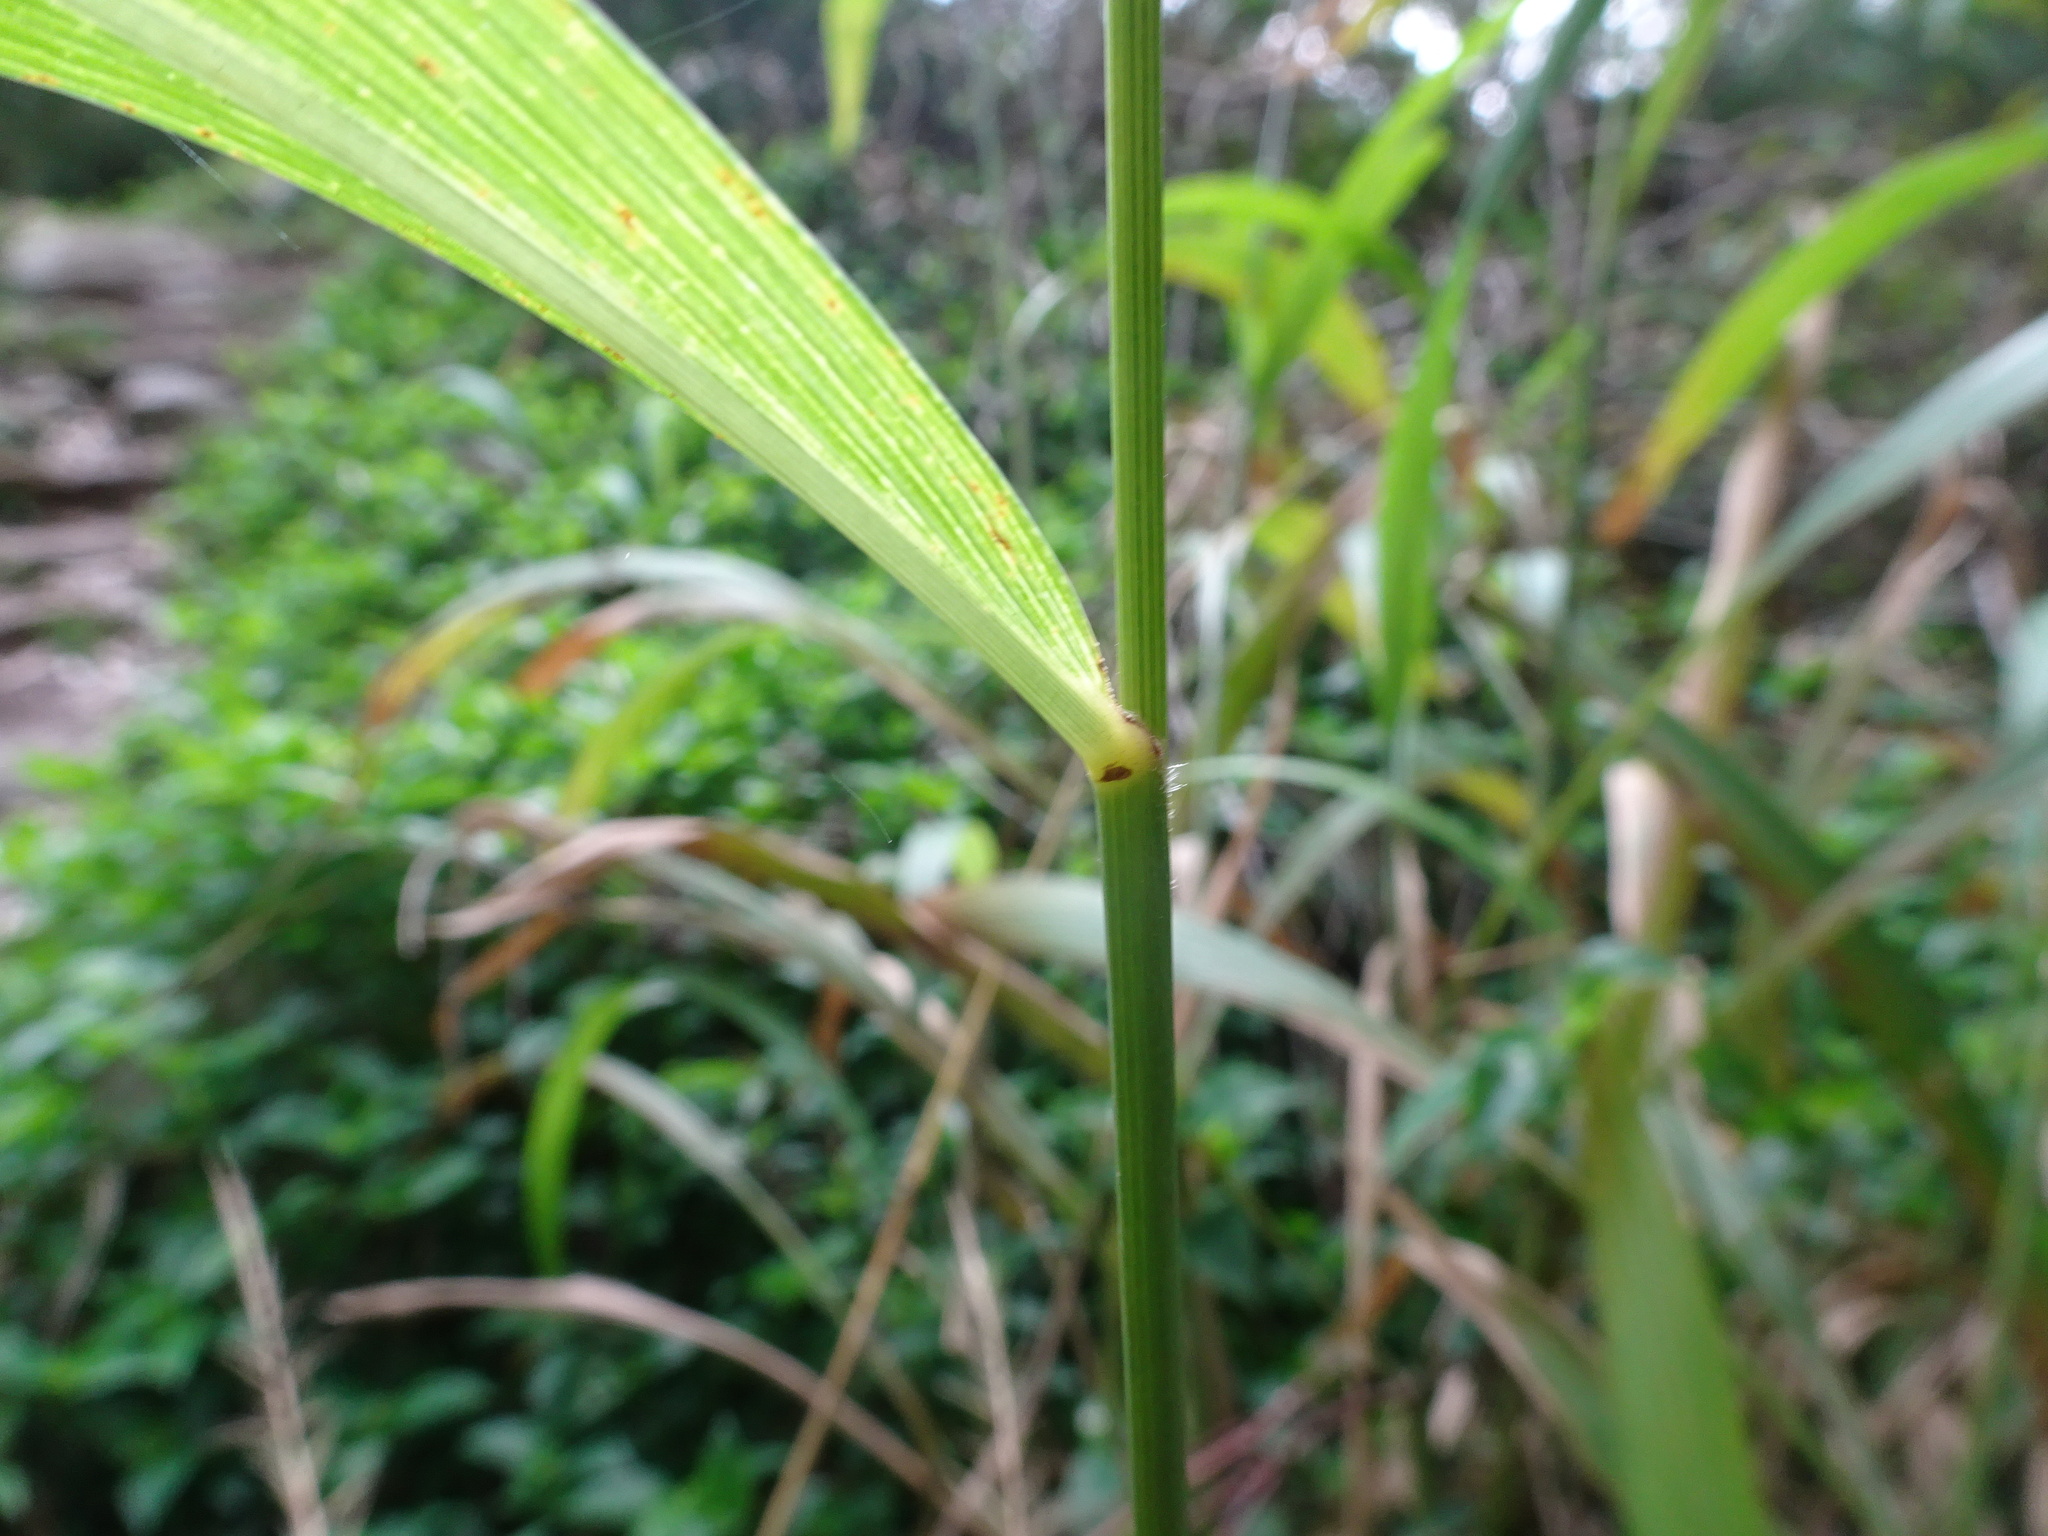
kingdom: Plantae
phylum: Tracheophyta
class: Liliopsida
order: Poales
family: Poaceae
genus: Setaria
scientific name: Setaria megaphylla
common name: Bigleaf bristlegrass
